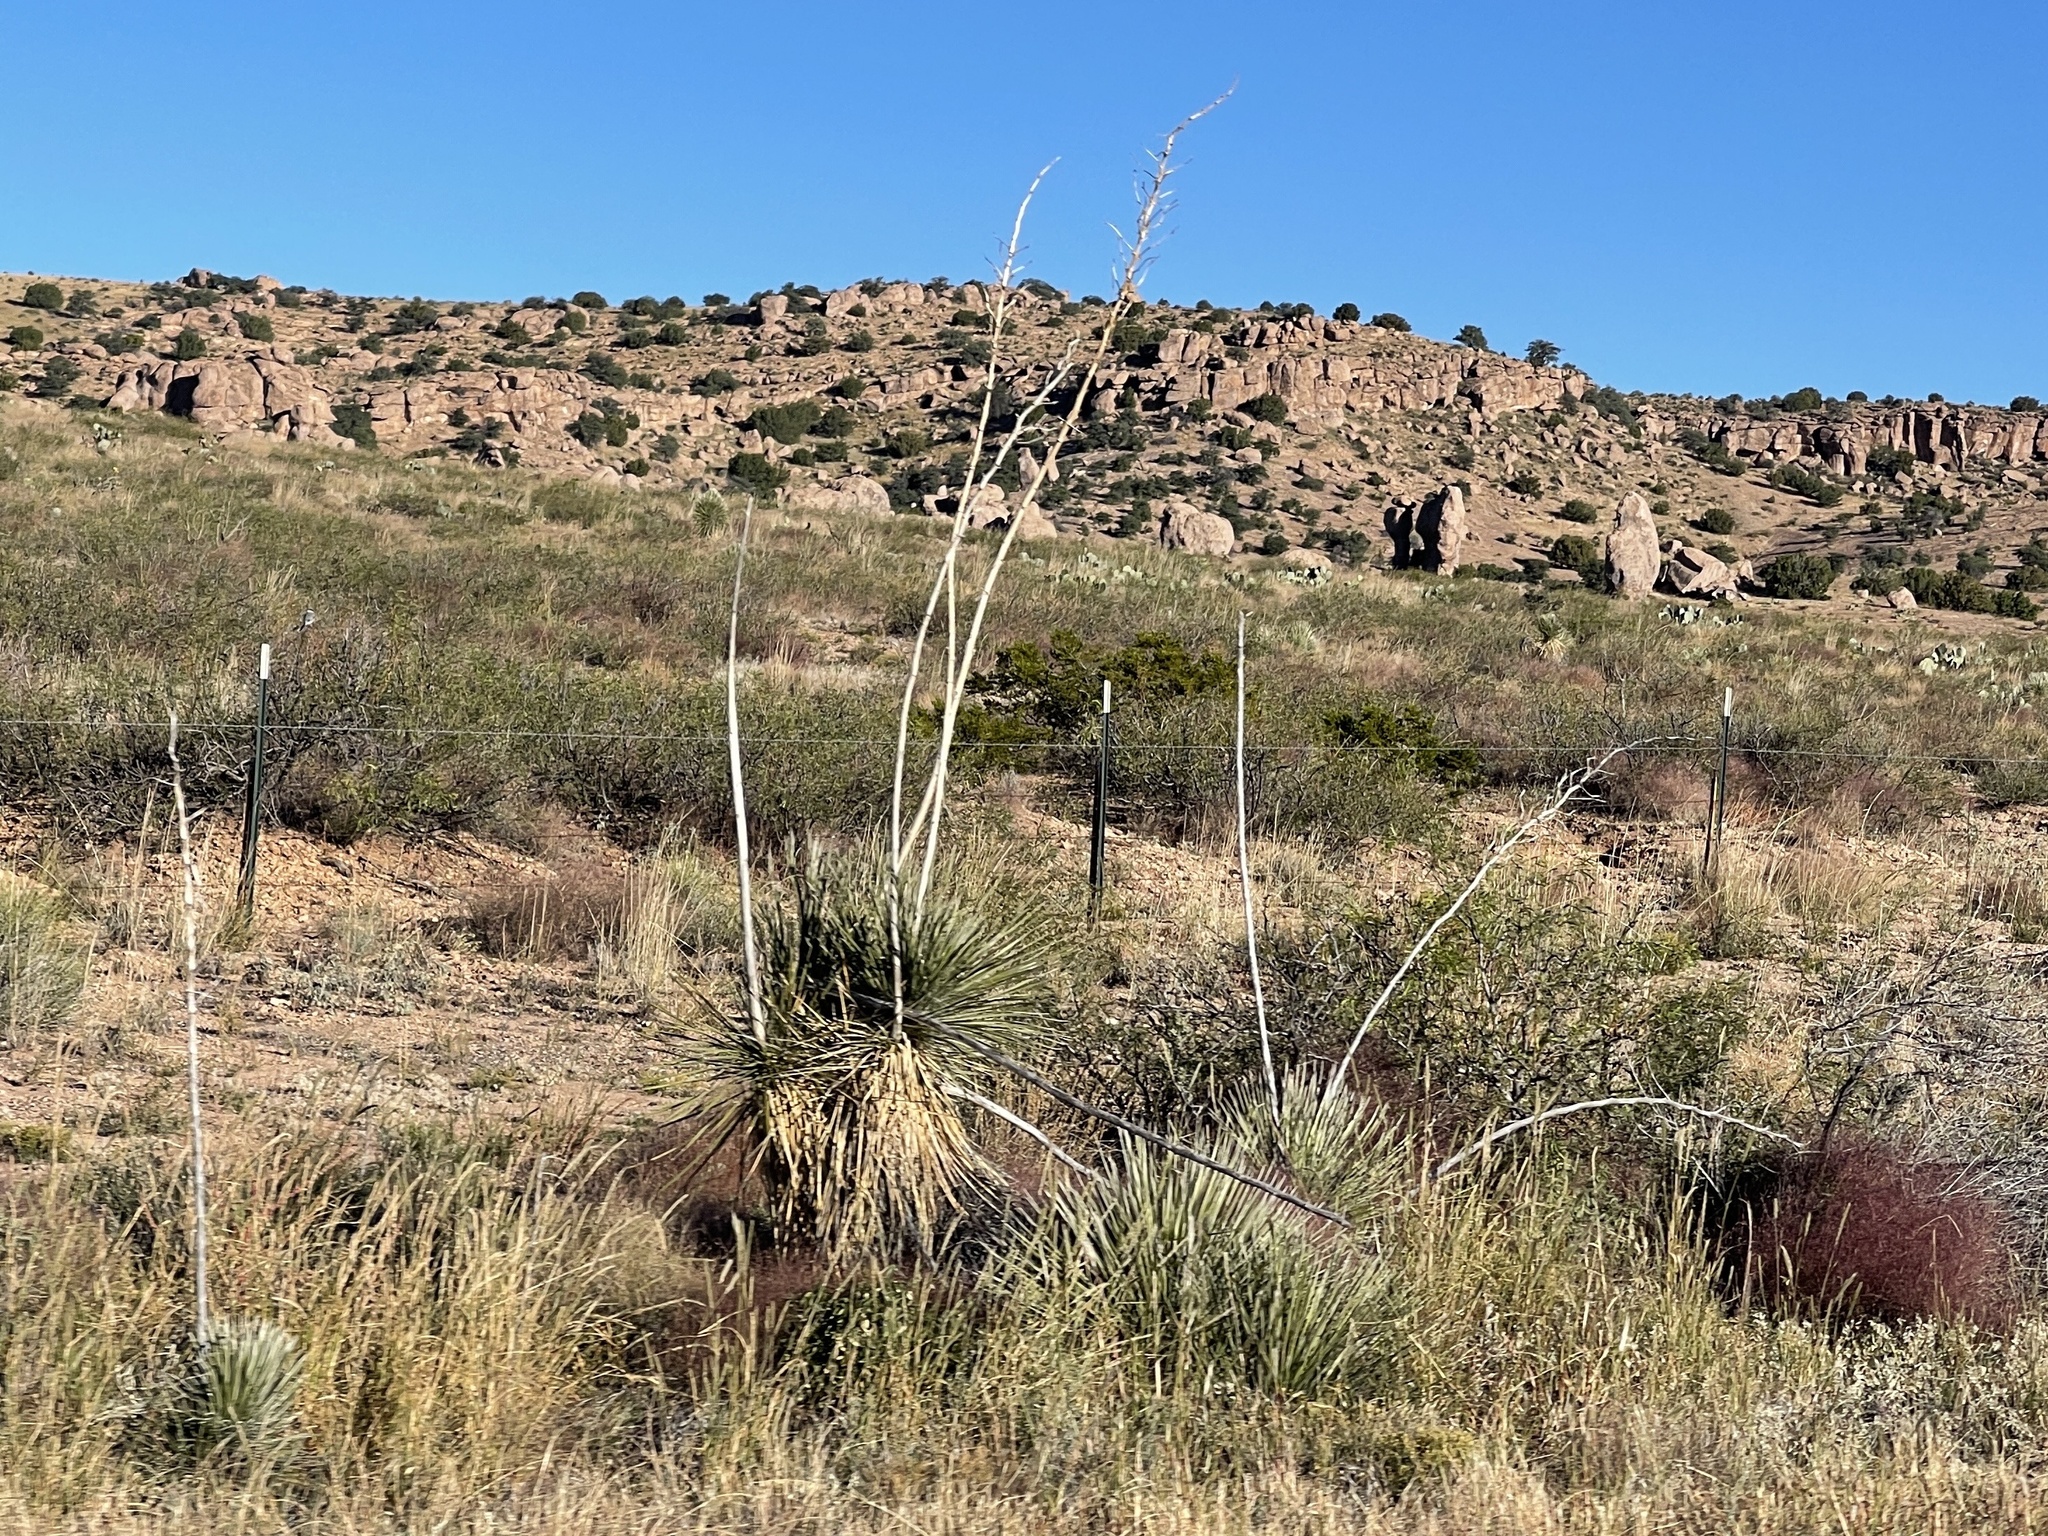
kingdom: Plantae
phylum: Tracheophyta
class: Liliopsida
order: Asparagales
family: Asparagaceae
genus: Yucca
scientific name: Yucca elata
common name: Palmella
